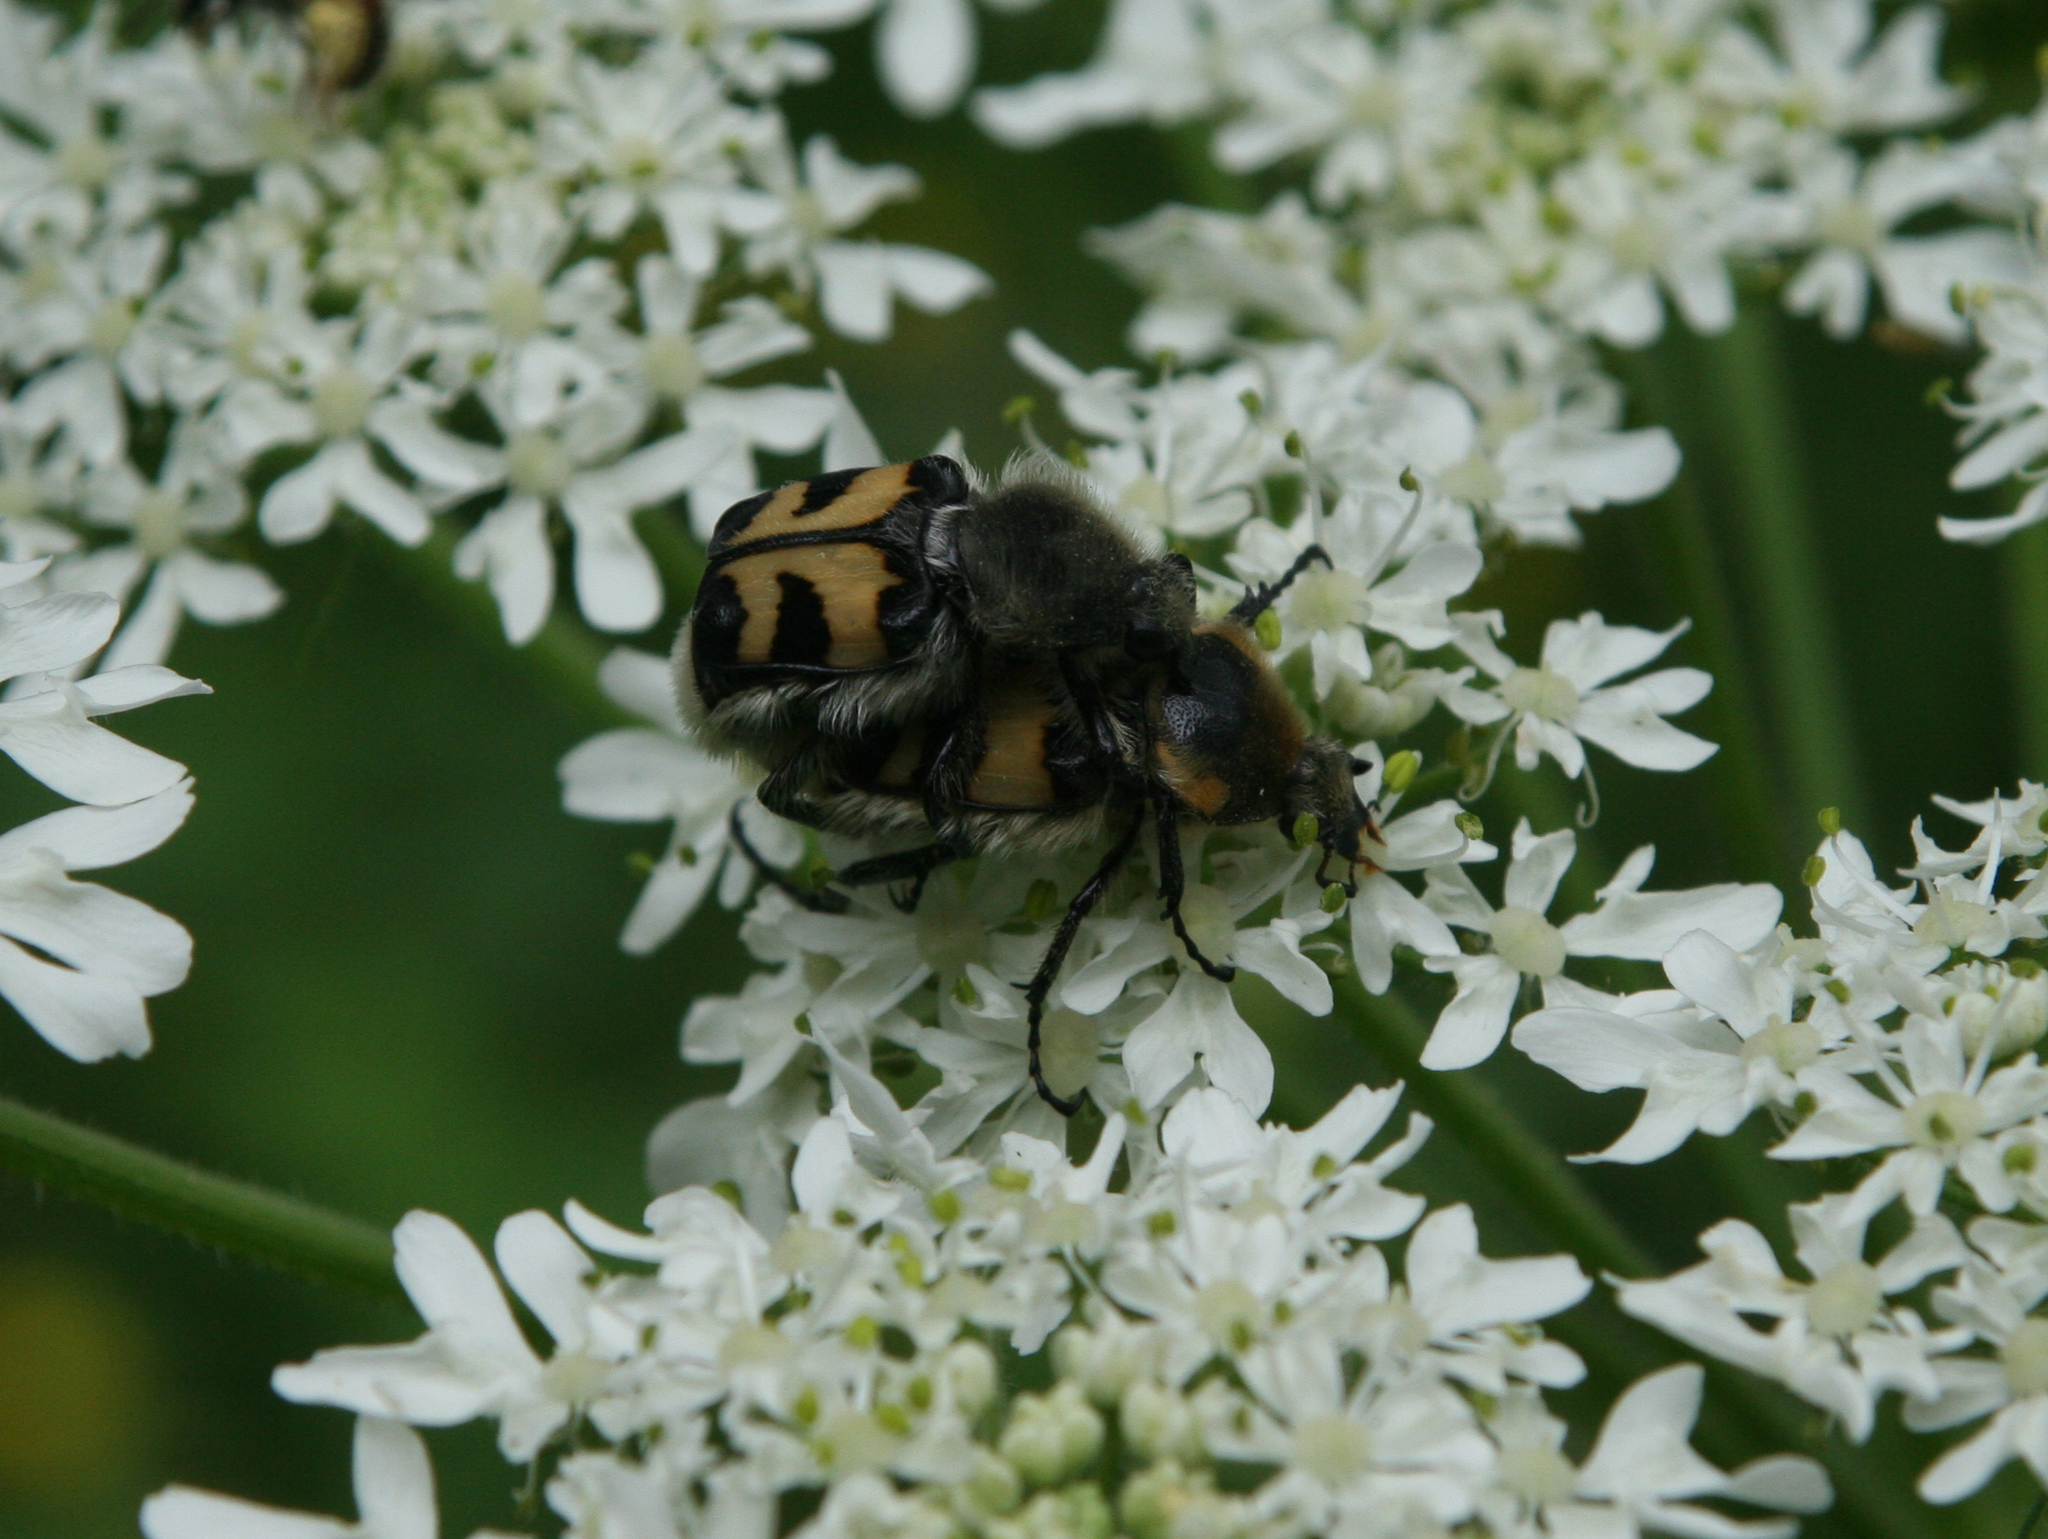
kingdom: Animalia
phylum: Arthropoda
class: Insecta
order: Coleoptera
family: Scarabaeidae
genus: Trichius
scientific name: Trichius fasciatus
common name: Bee beetle
